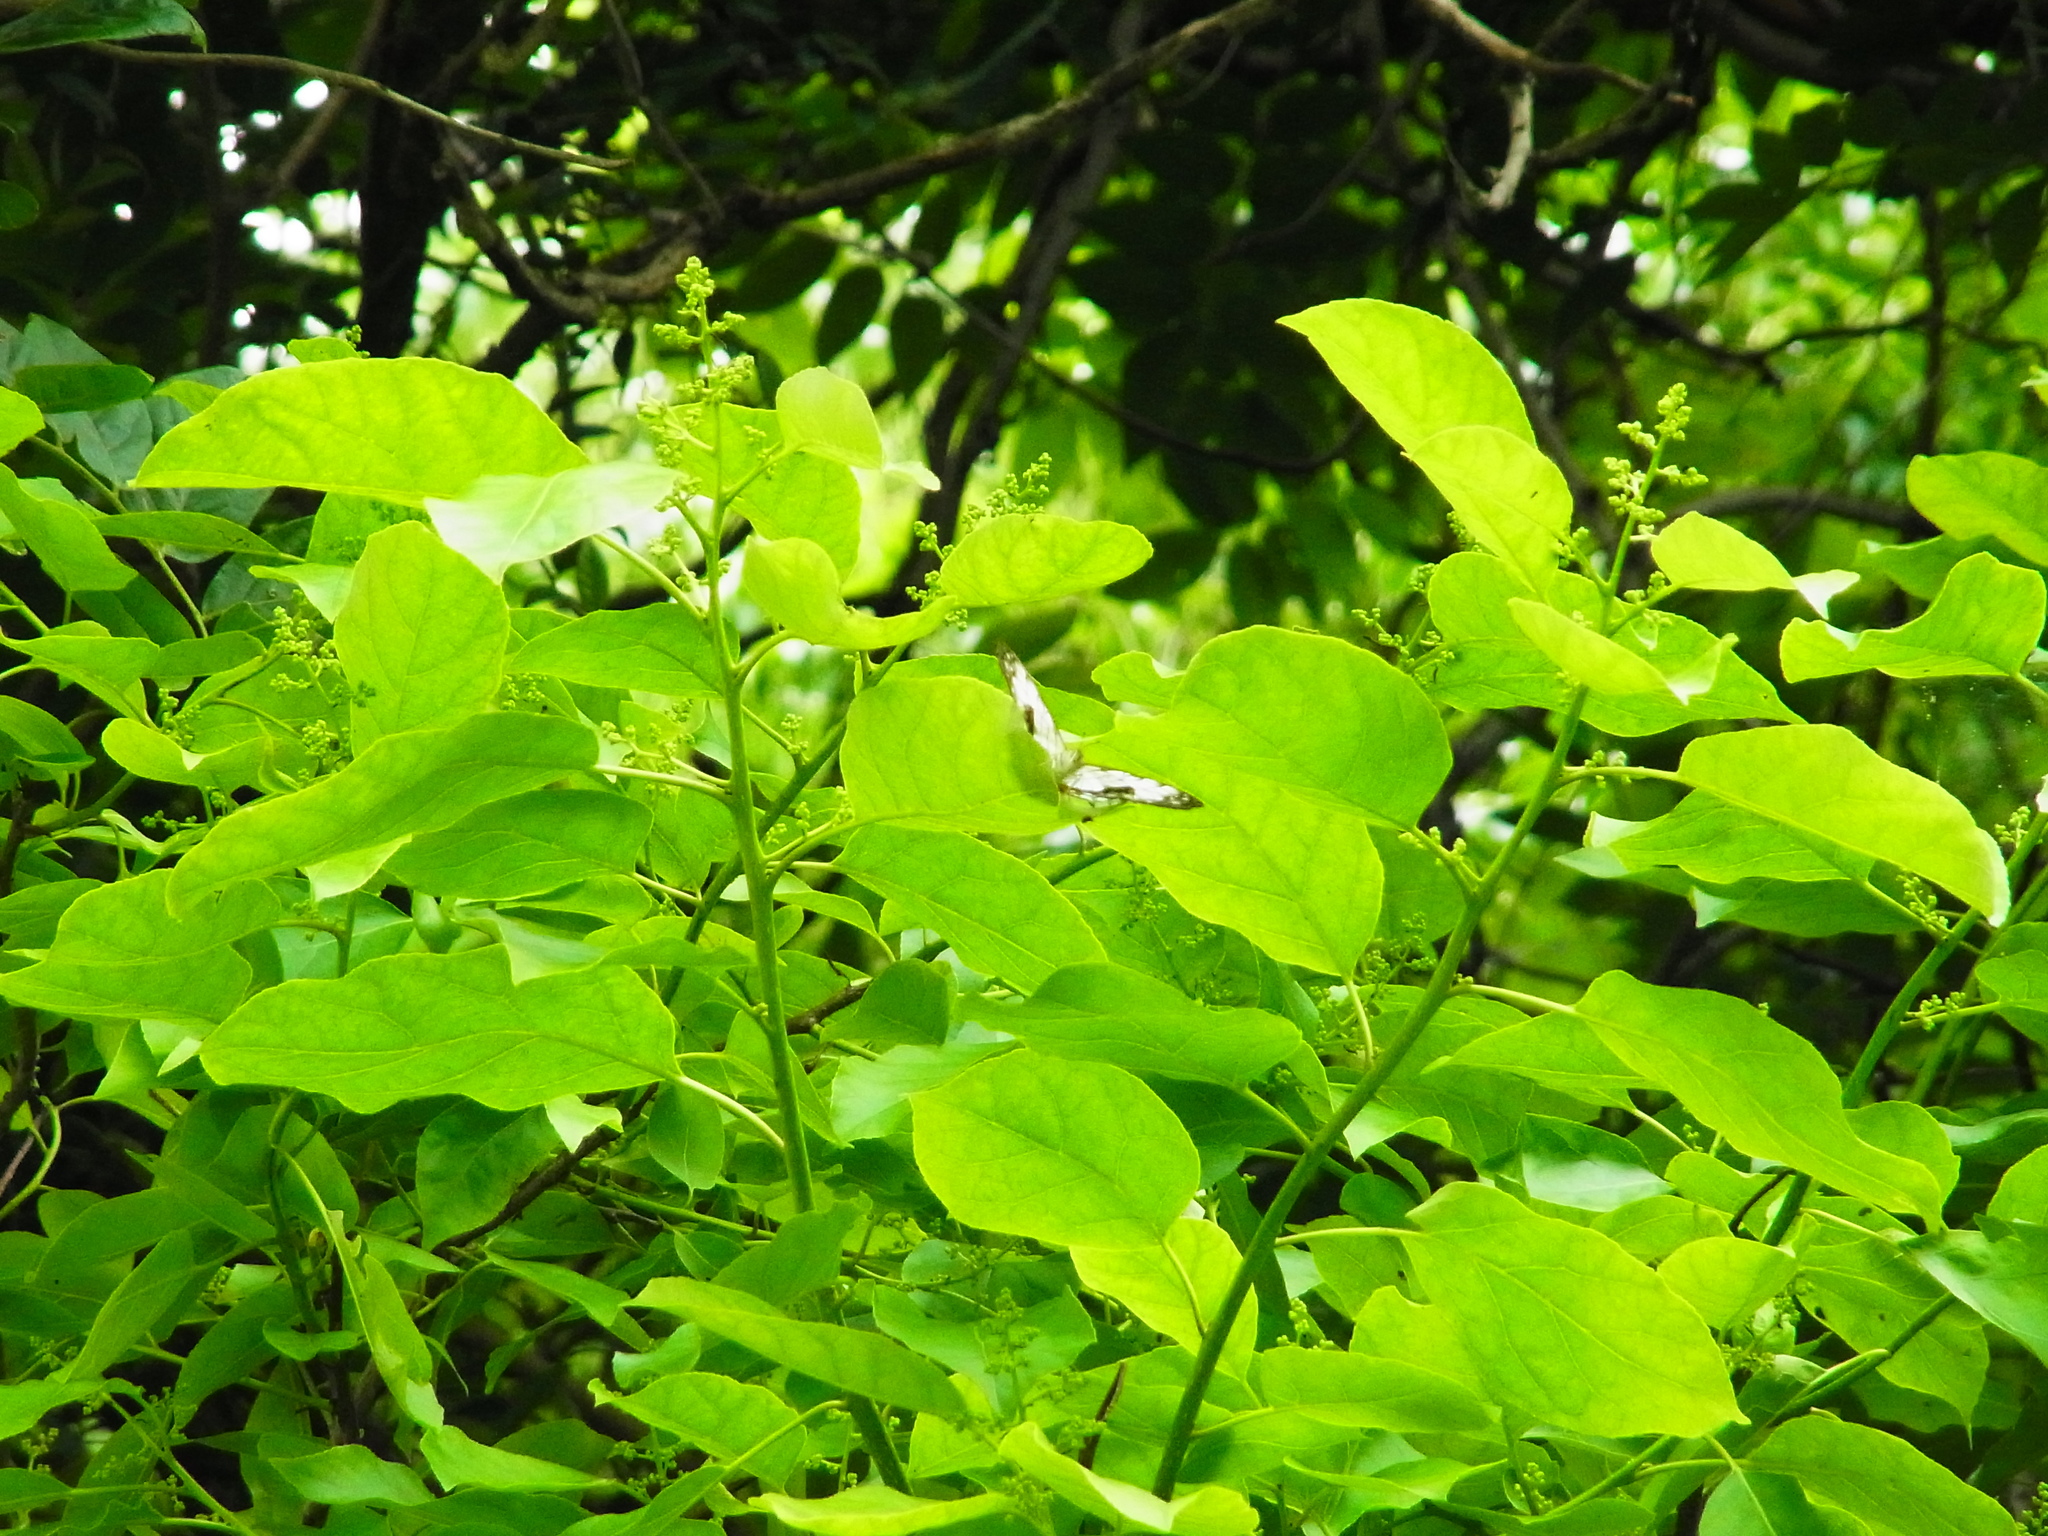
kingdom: Animalia
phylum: Arthropoda
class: Insecta
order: Lepidoptera
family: Nymphalidae
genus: Cyrestis
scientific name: Cyrestis thyodamas
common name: Common mapwing
